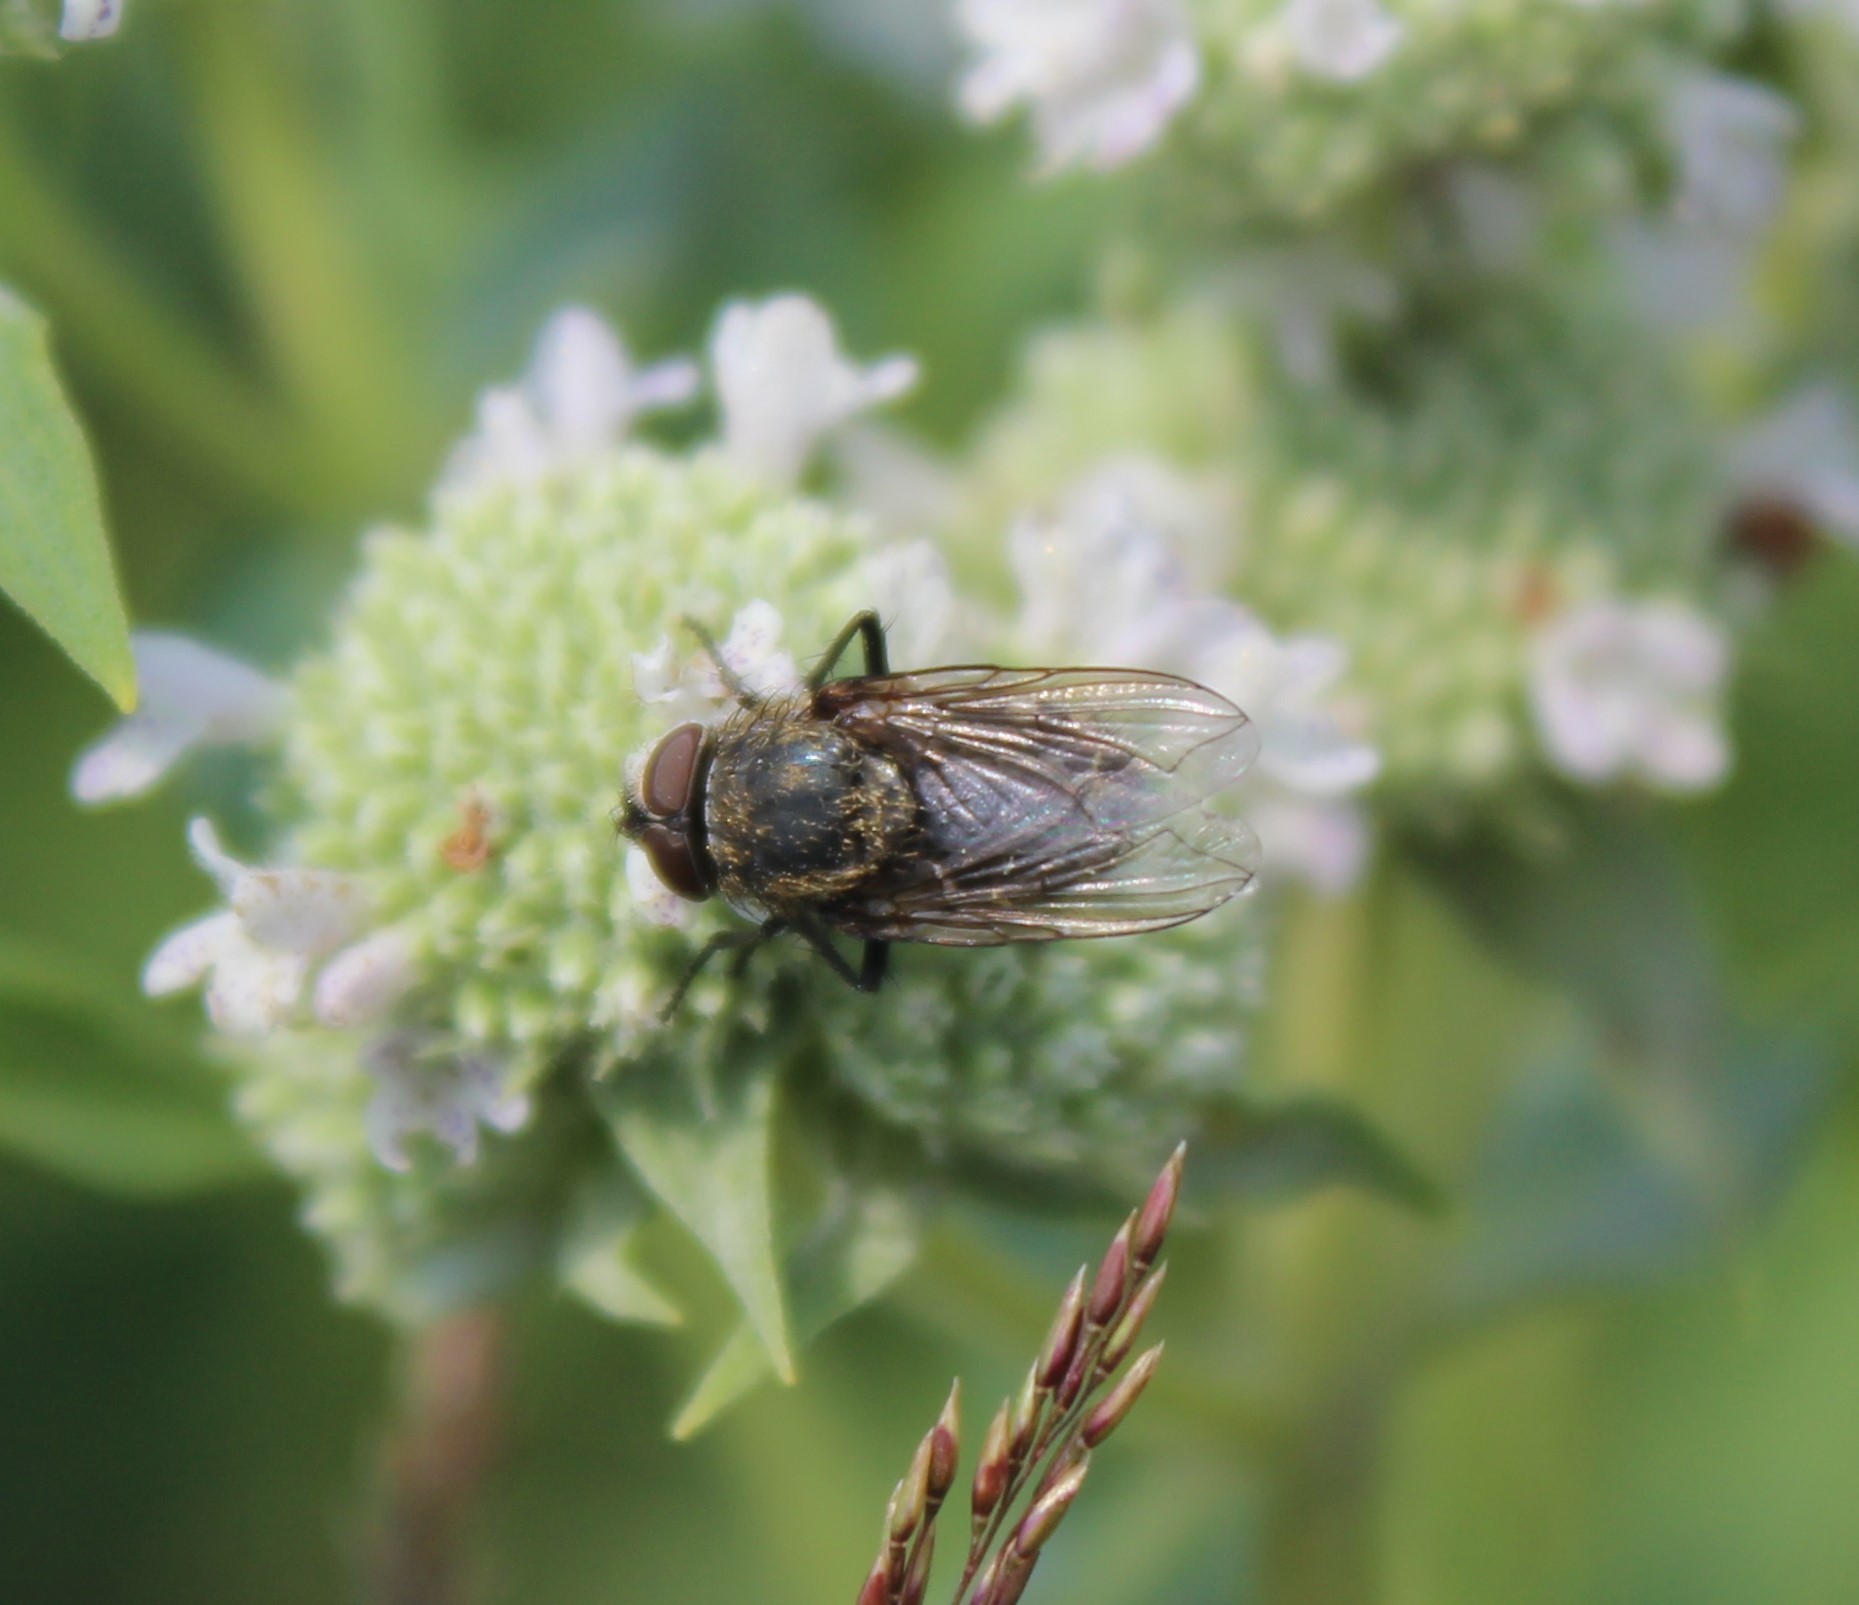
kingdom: Animalia
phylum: Arthropoda
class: Insecta
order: Diptera
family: Polleniidae
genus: Pollenia
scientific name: Pollenia
